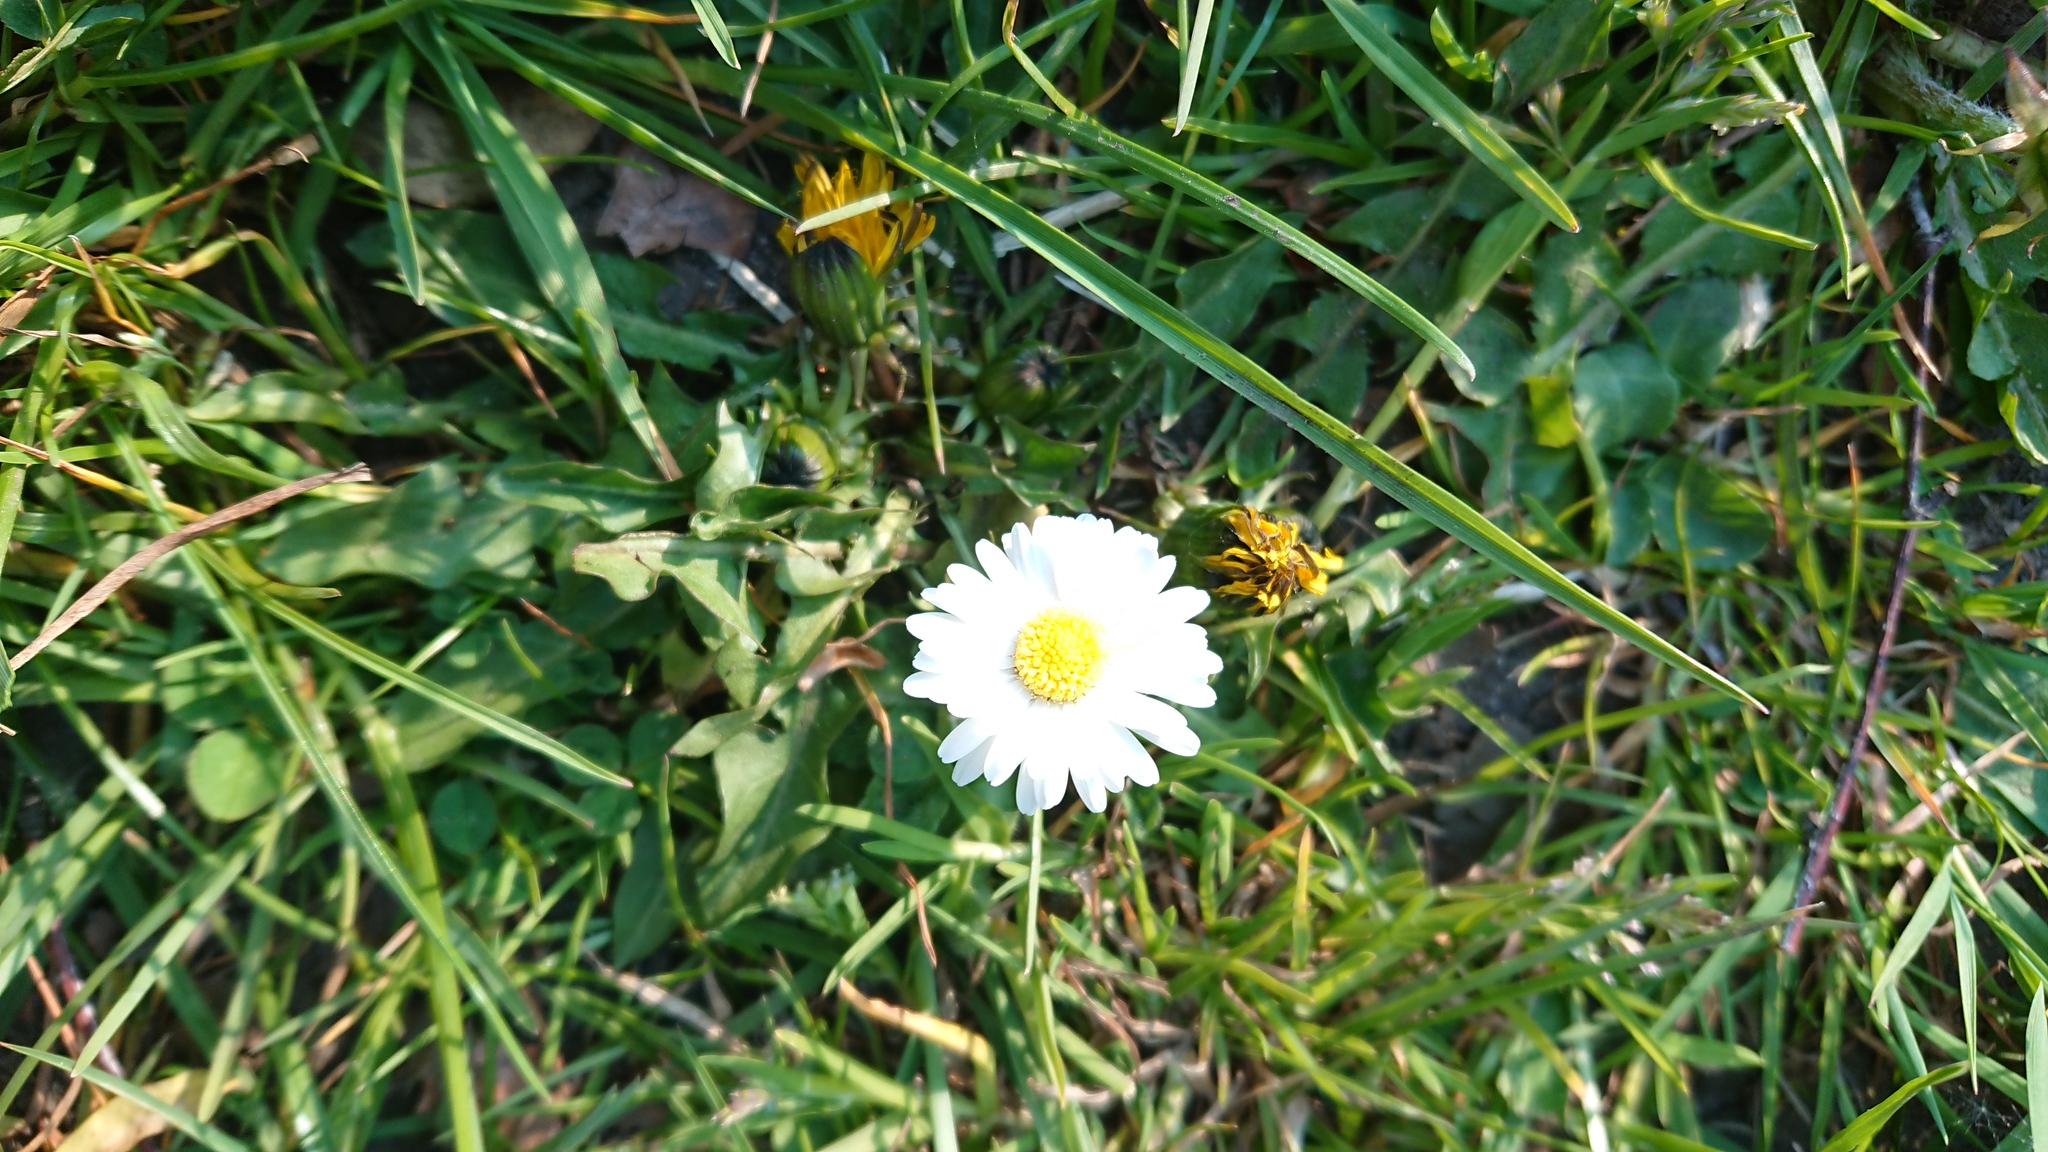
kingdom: Plantae
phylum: Tracheophyta
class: Magnoliopsida
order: Asterales
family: Asteraceae
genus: Bellis
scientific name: Bellis perennis
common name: Lawndaisy
